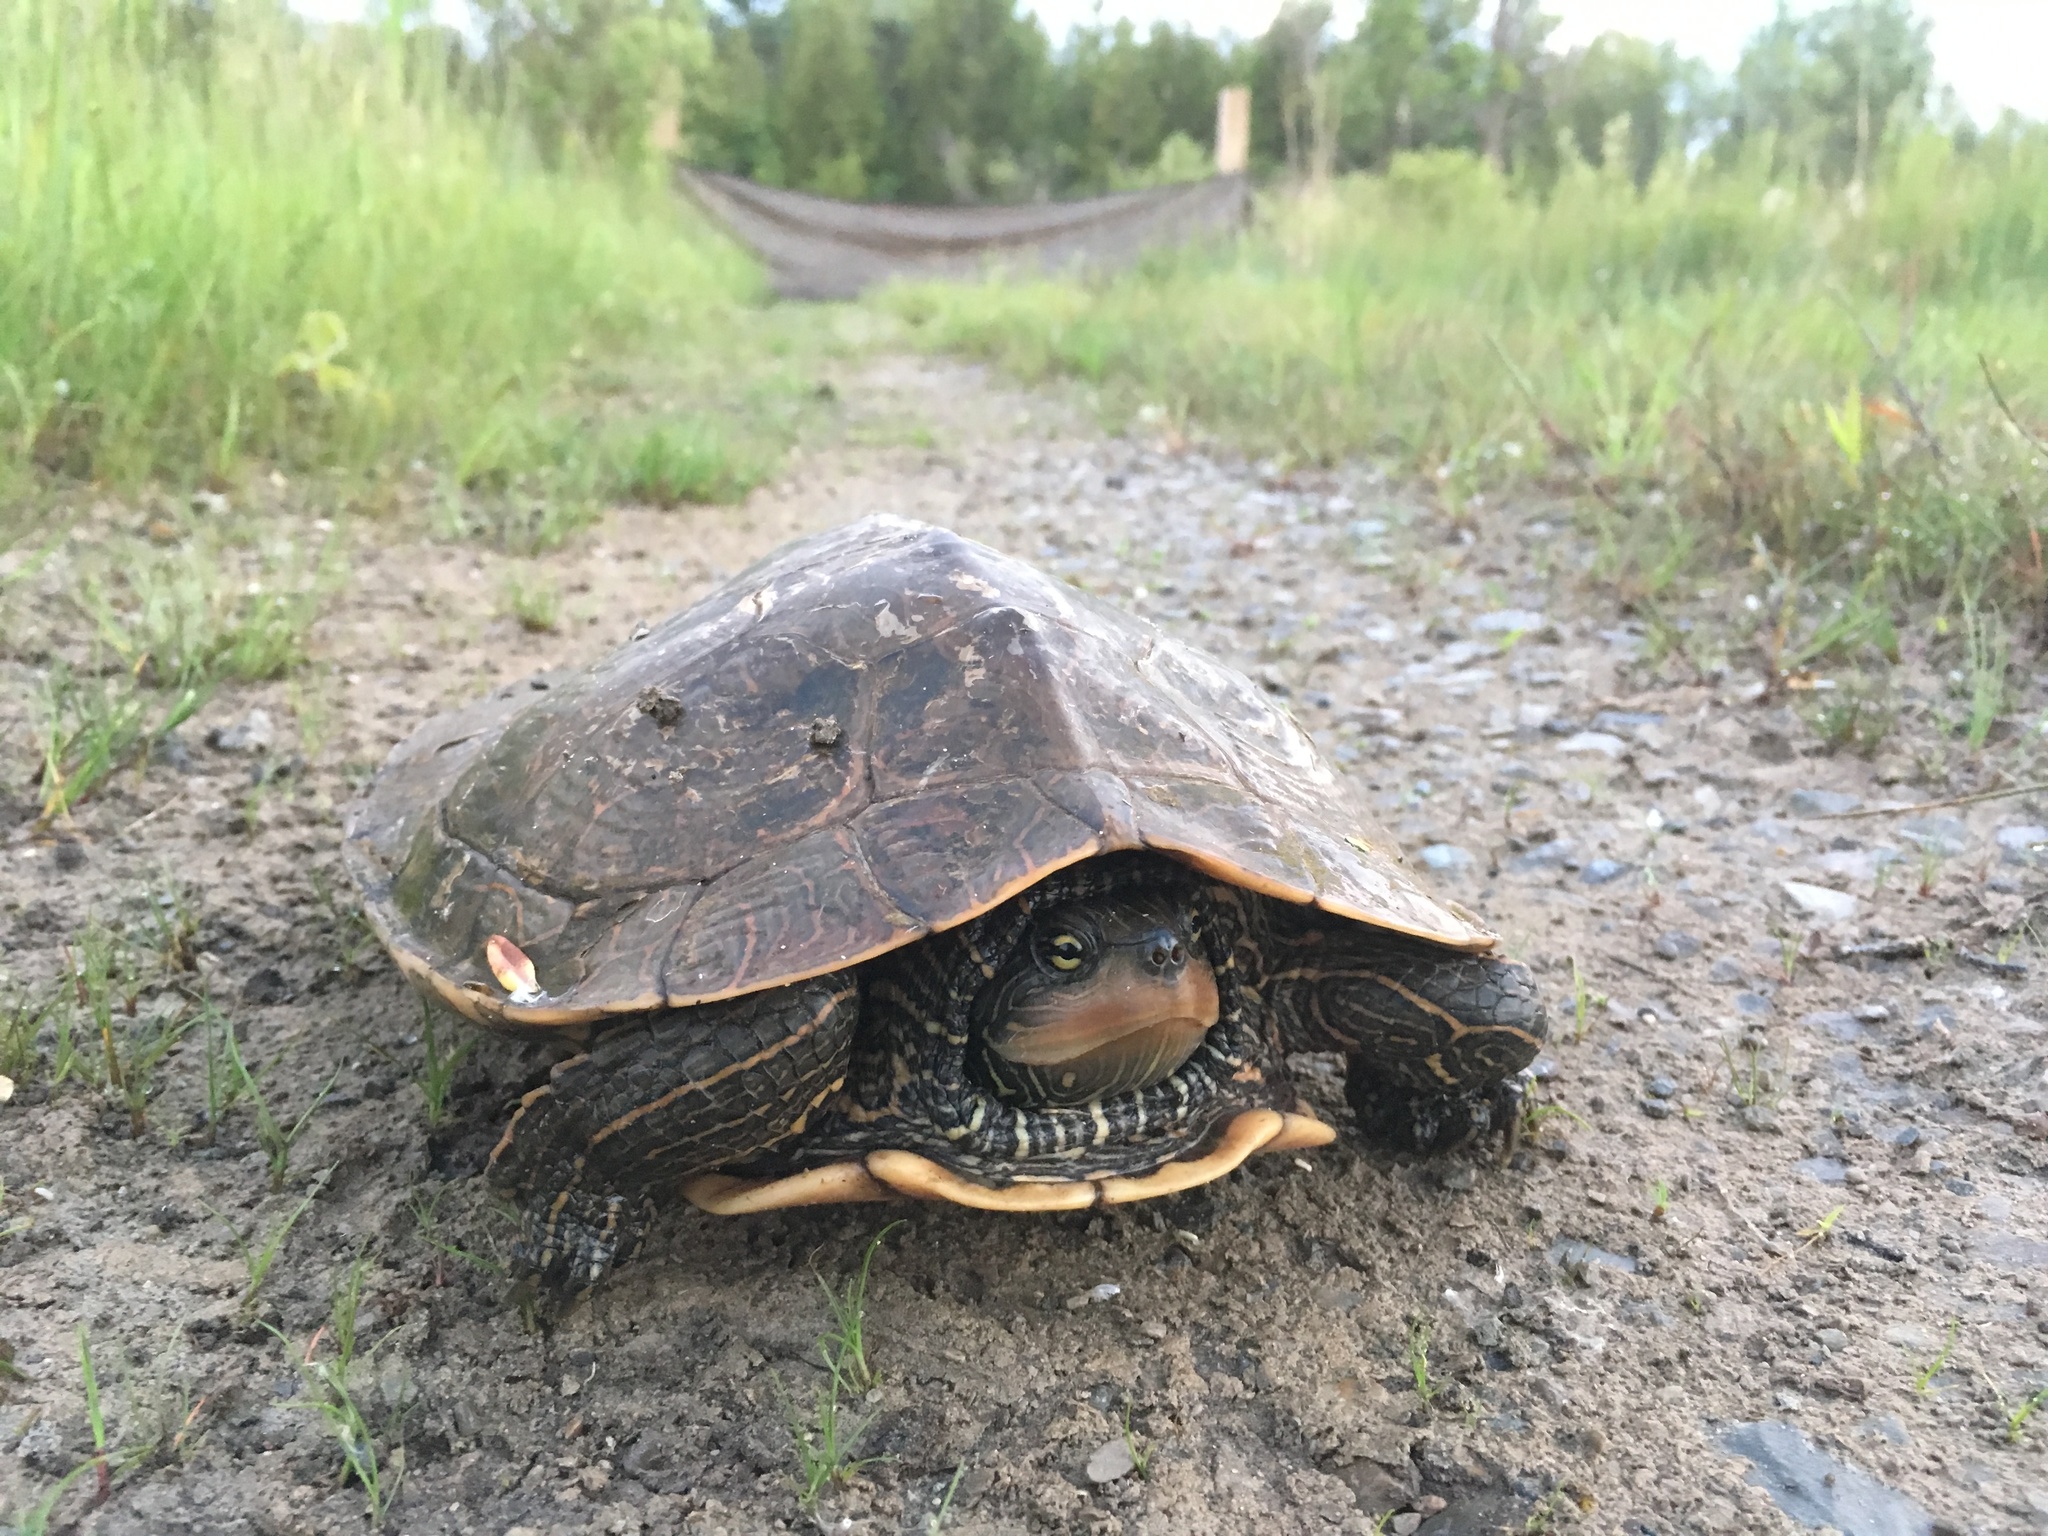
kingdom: Animalia
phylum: Chordata
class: Testudines
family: Emydidae
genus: Graptemys
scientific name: Graptemys geographica
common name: Common map turtle
